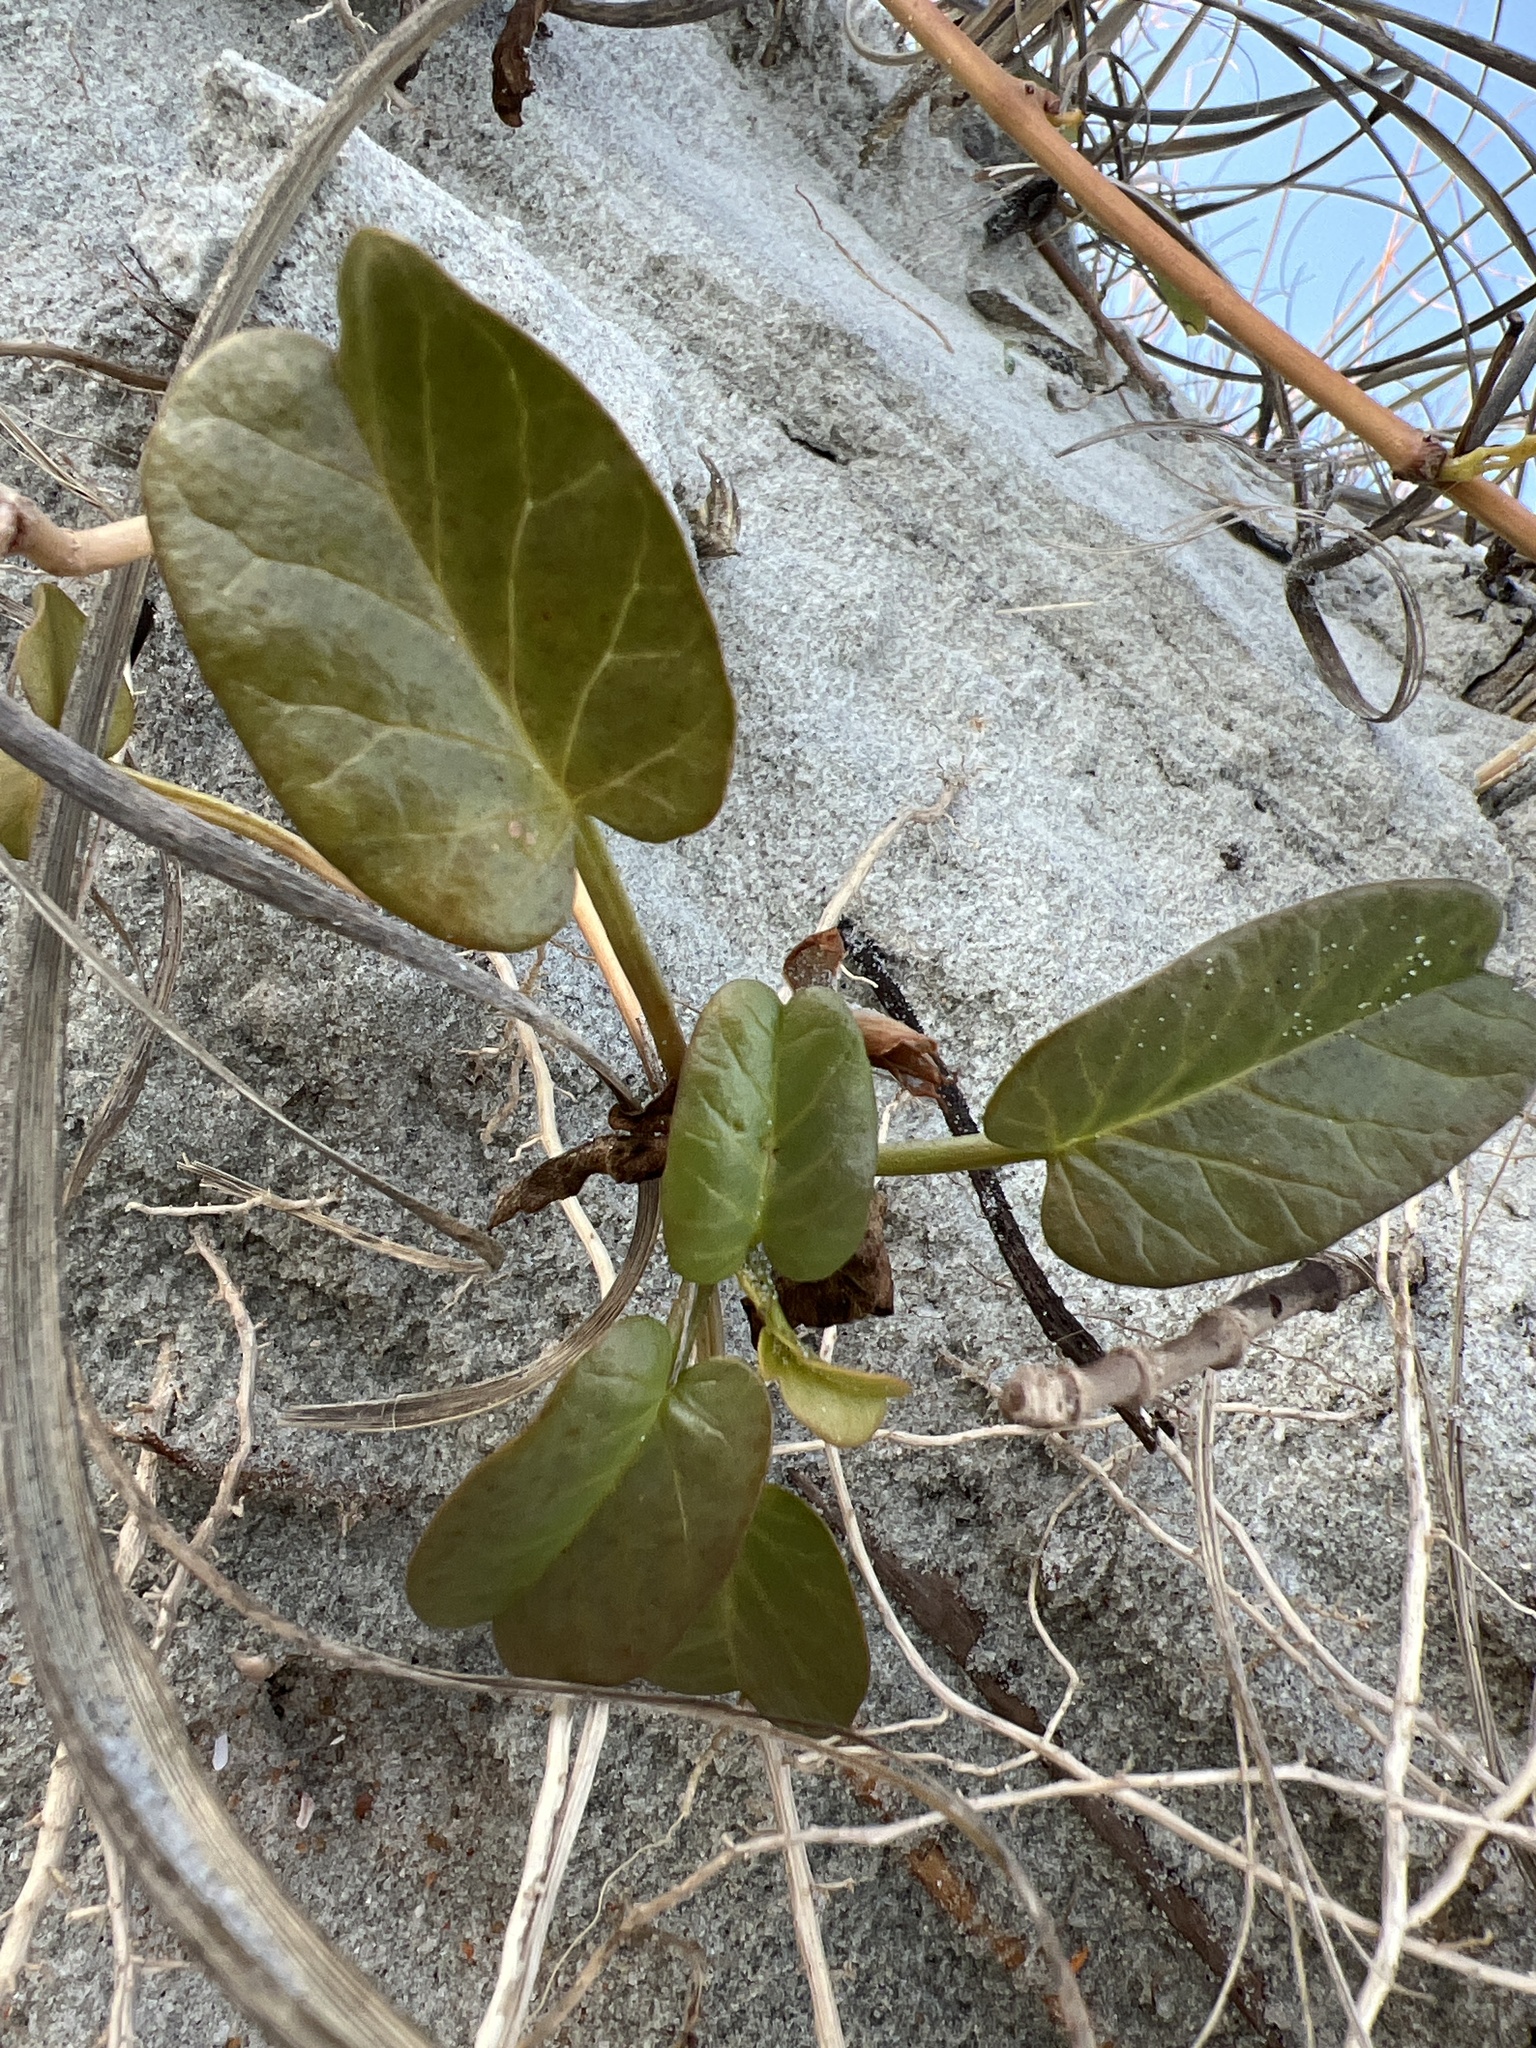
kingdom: Plantae
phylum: Tracheophyta
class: Magnoliopsida
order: Solanales
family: Convolvulaceae
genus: Ipomoea
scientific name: Ipomoea imperati
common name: Fiddle-leaf morning-glory
